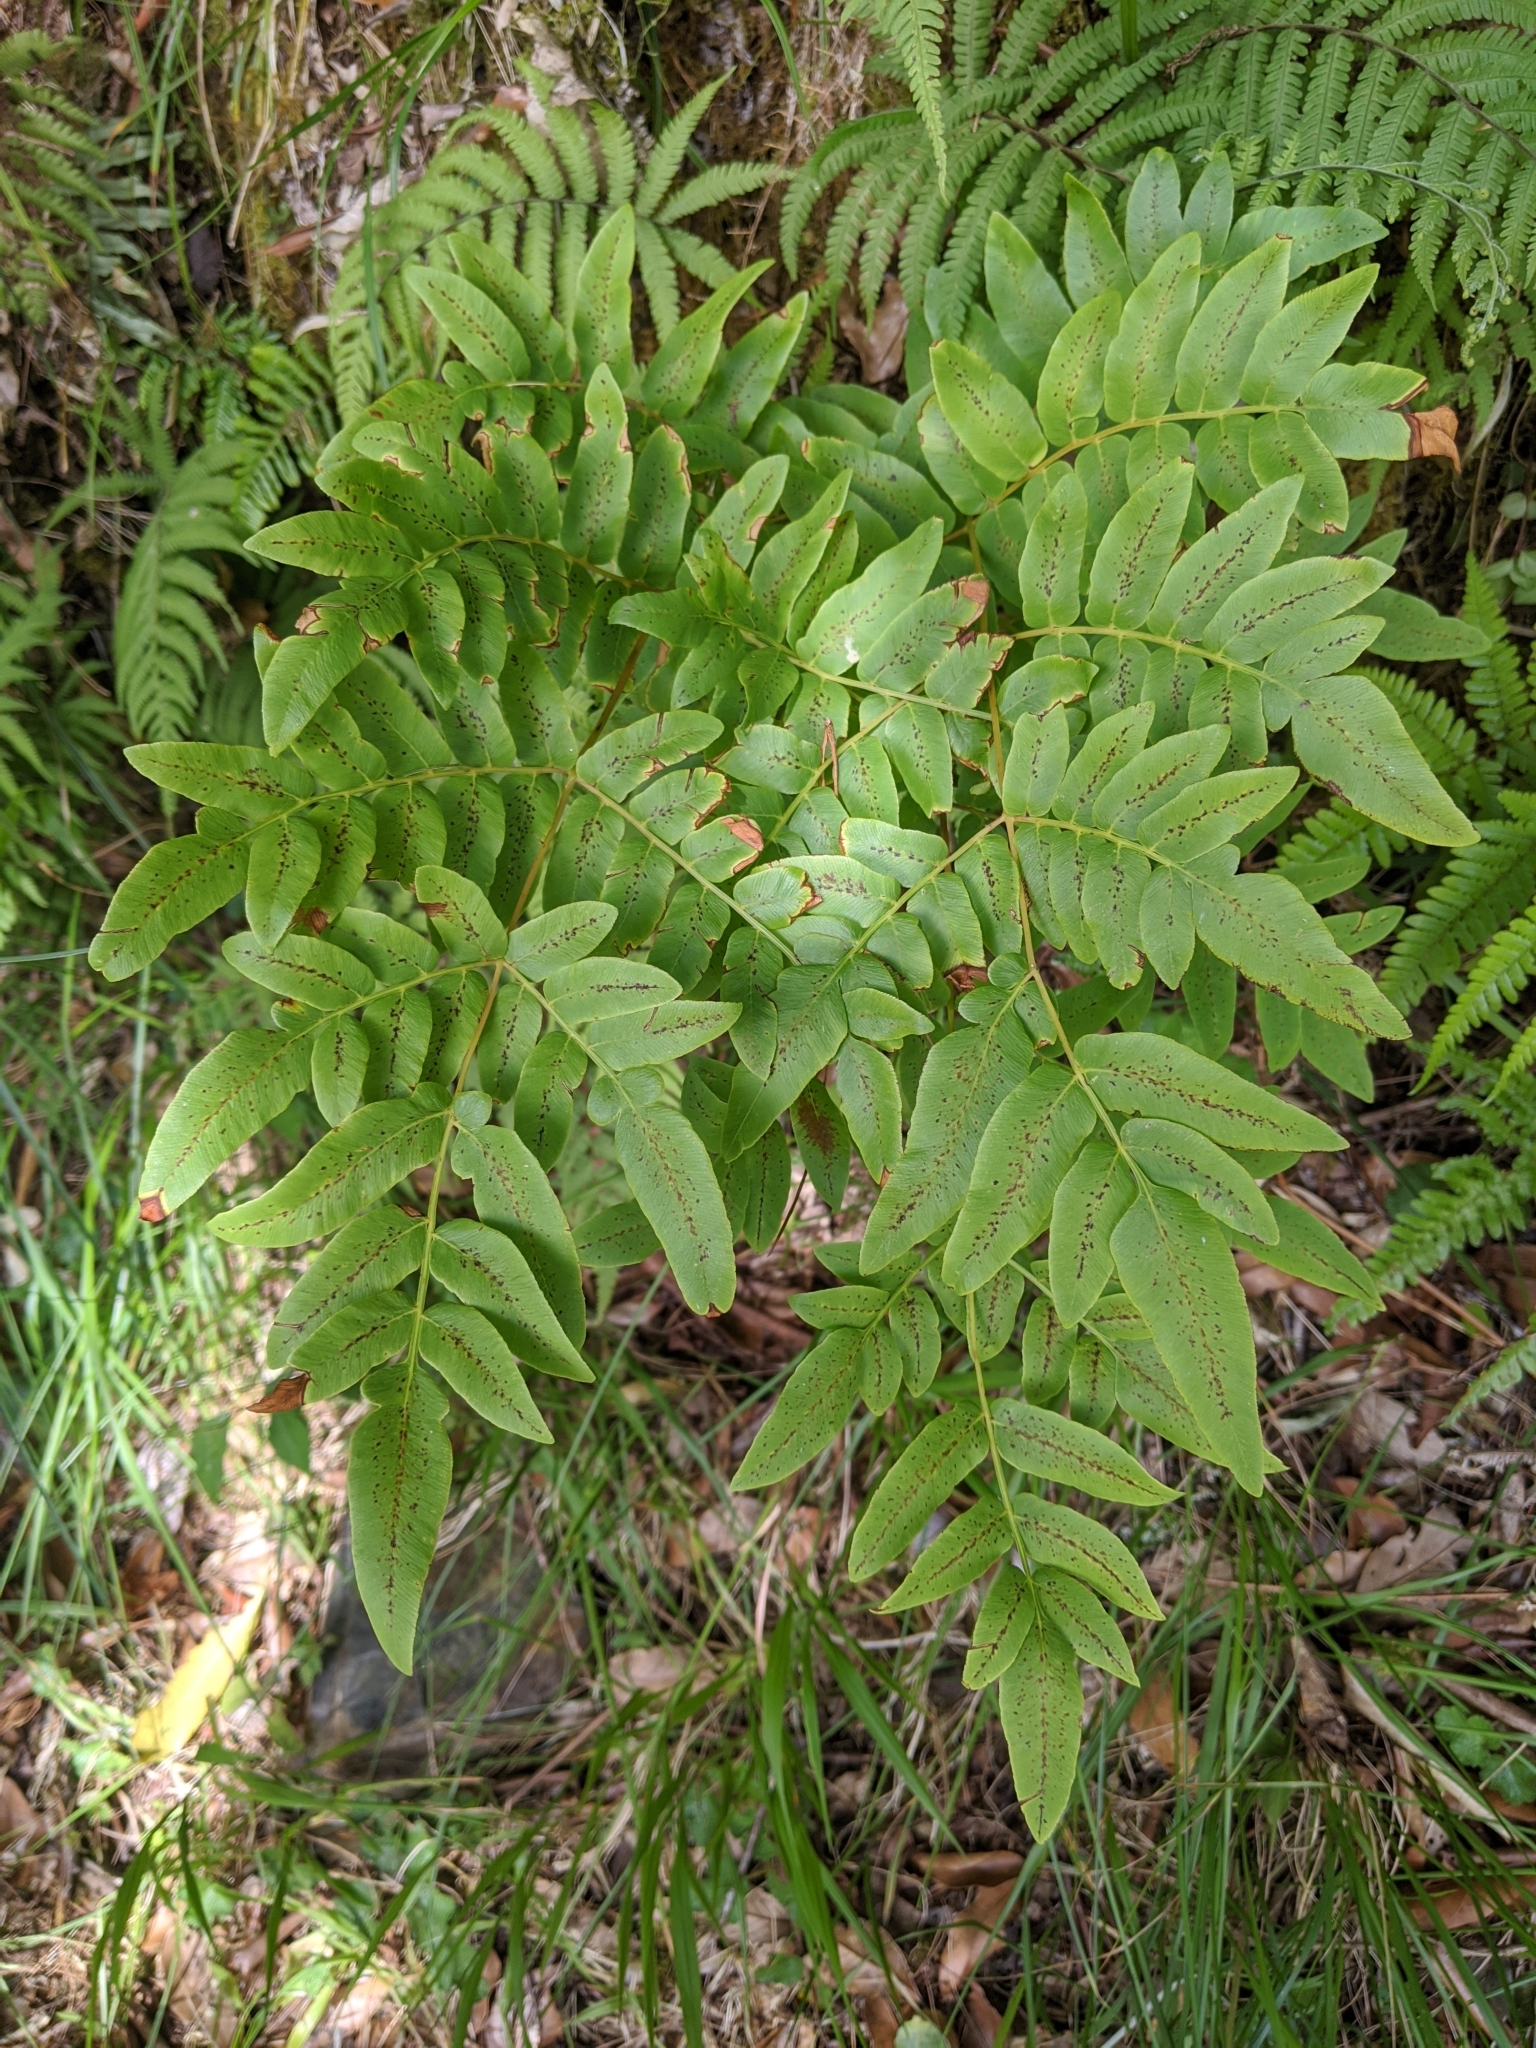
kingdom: Plantae
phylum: Tracheophyta
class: Polypodiopsida
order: Osmundales
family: Osmundaceae
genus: Osmunda
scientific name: Osmunda japonica
